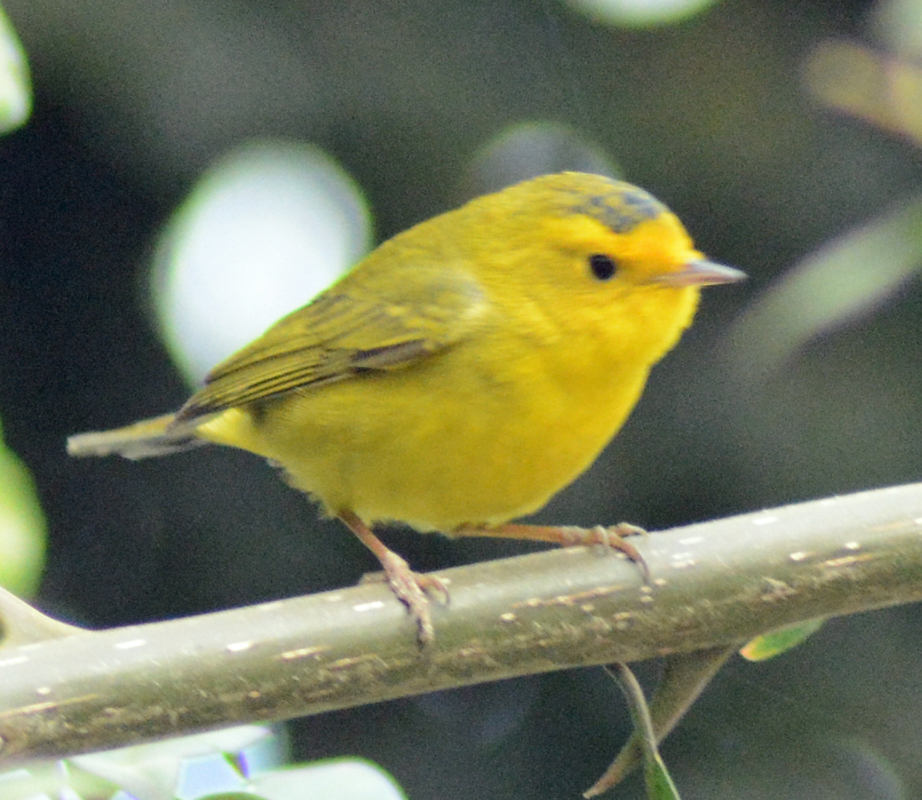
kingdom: Animalia
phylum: Chordata
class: Aves
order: Passeriformes
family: Parulidae
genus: Cardellina
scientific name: Cardellina pusilla
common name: Wilson's warbler
